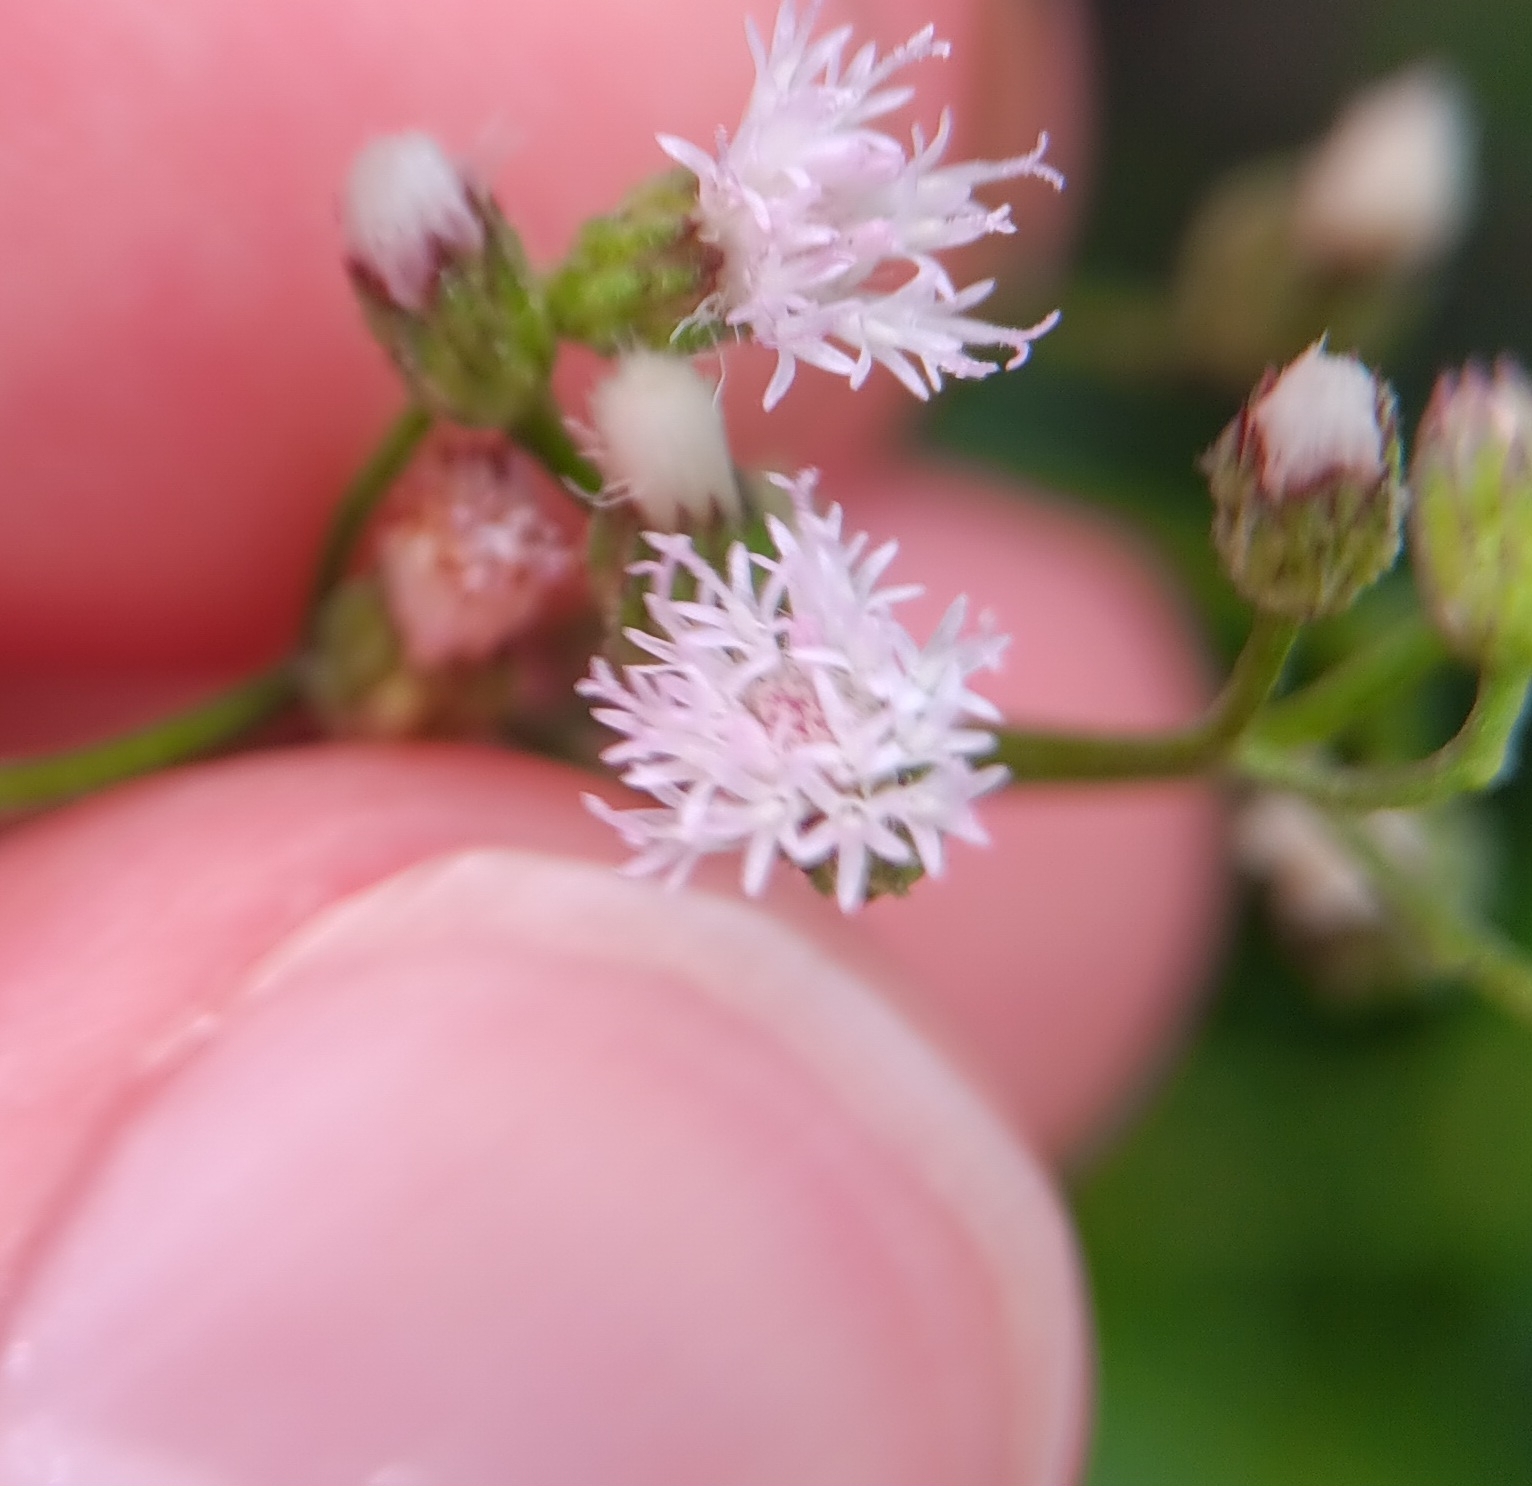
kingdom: Plantae
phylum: Tracheophyta
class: Magnoliopsida
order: Asterales
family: Asteraceae
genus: Cyanthillium
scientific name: Cyanthillium cinereum
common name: Little ironweed
